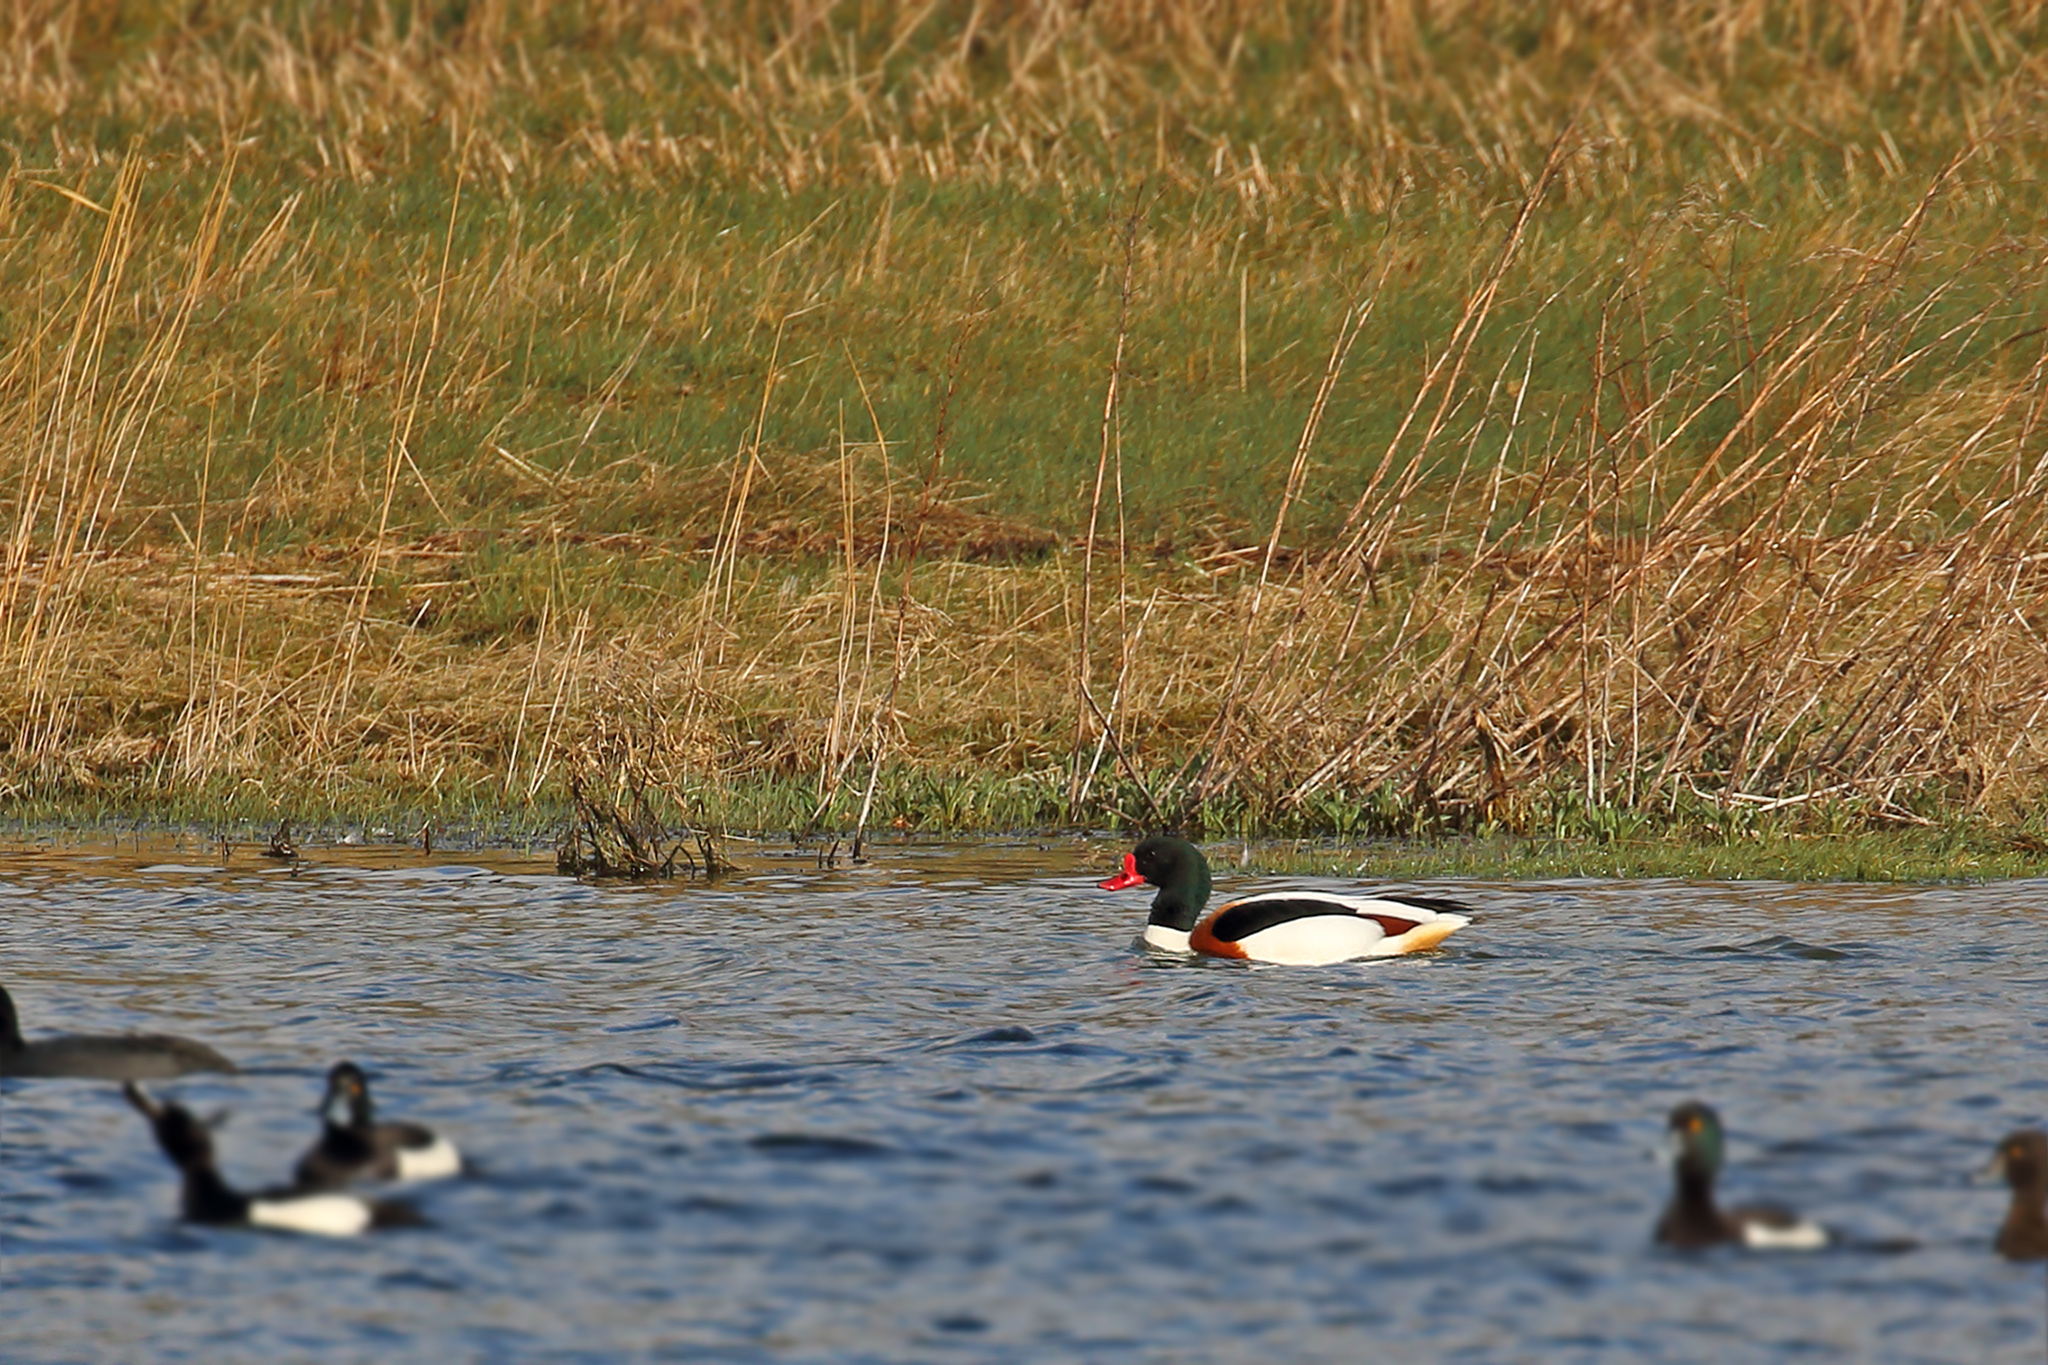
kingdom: Animalia
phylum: Chordata
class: Aves
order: Anseriformes
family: Anatidae
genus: Tadorna
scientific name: Tadorna tadorna
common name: Common shelduck
